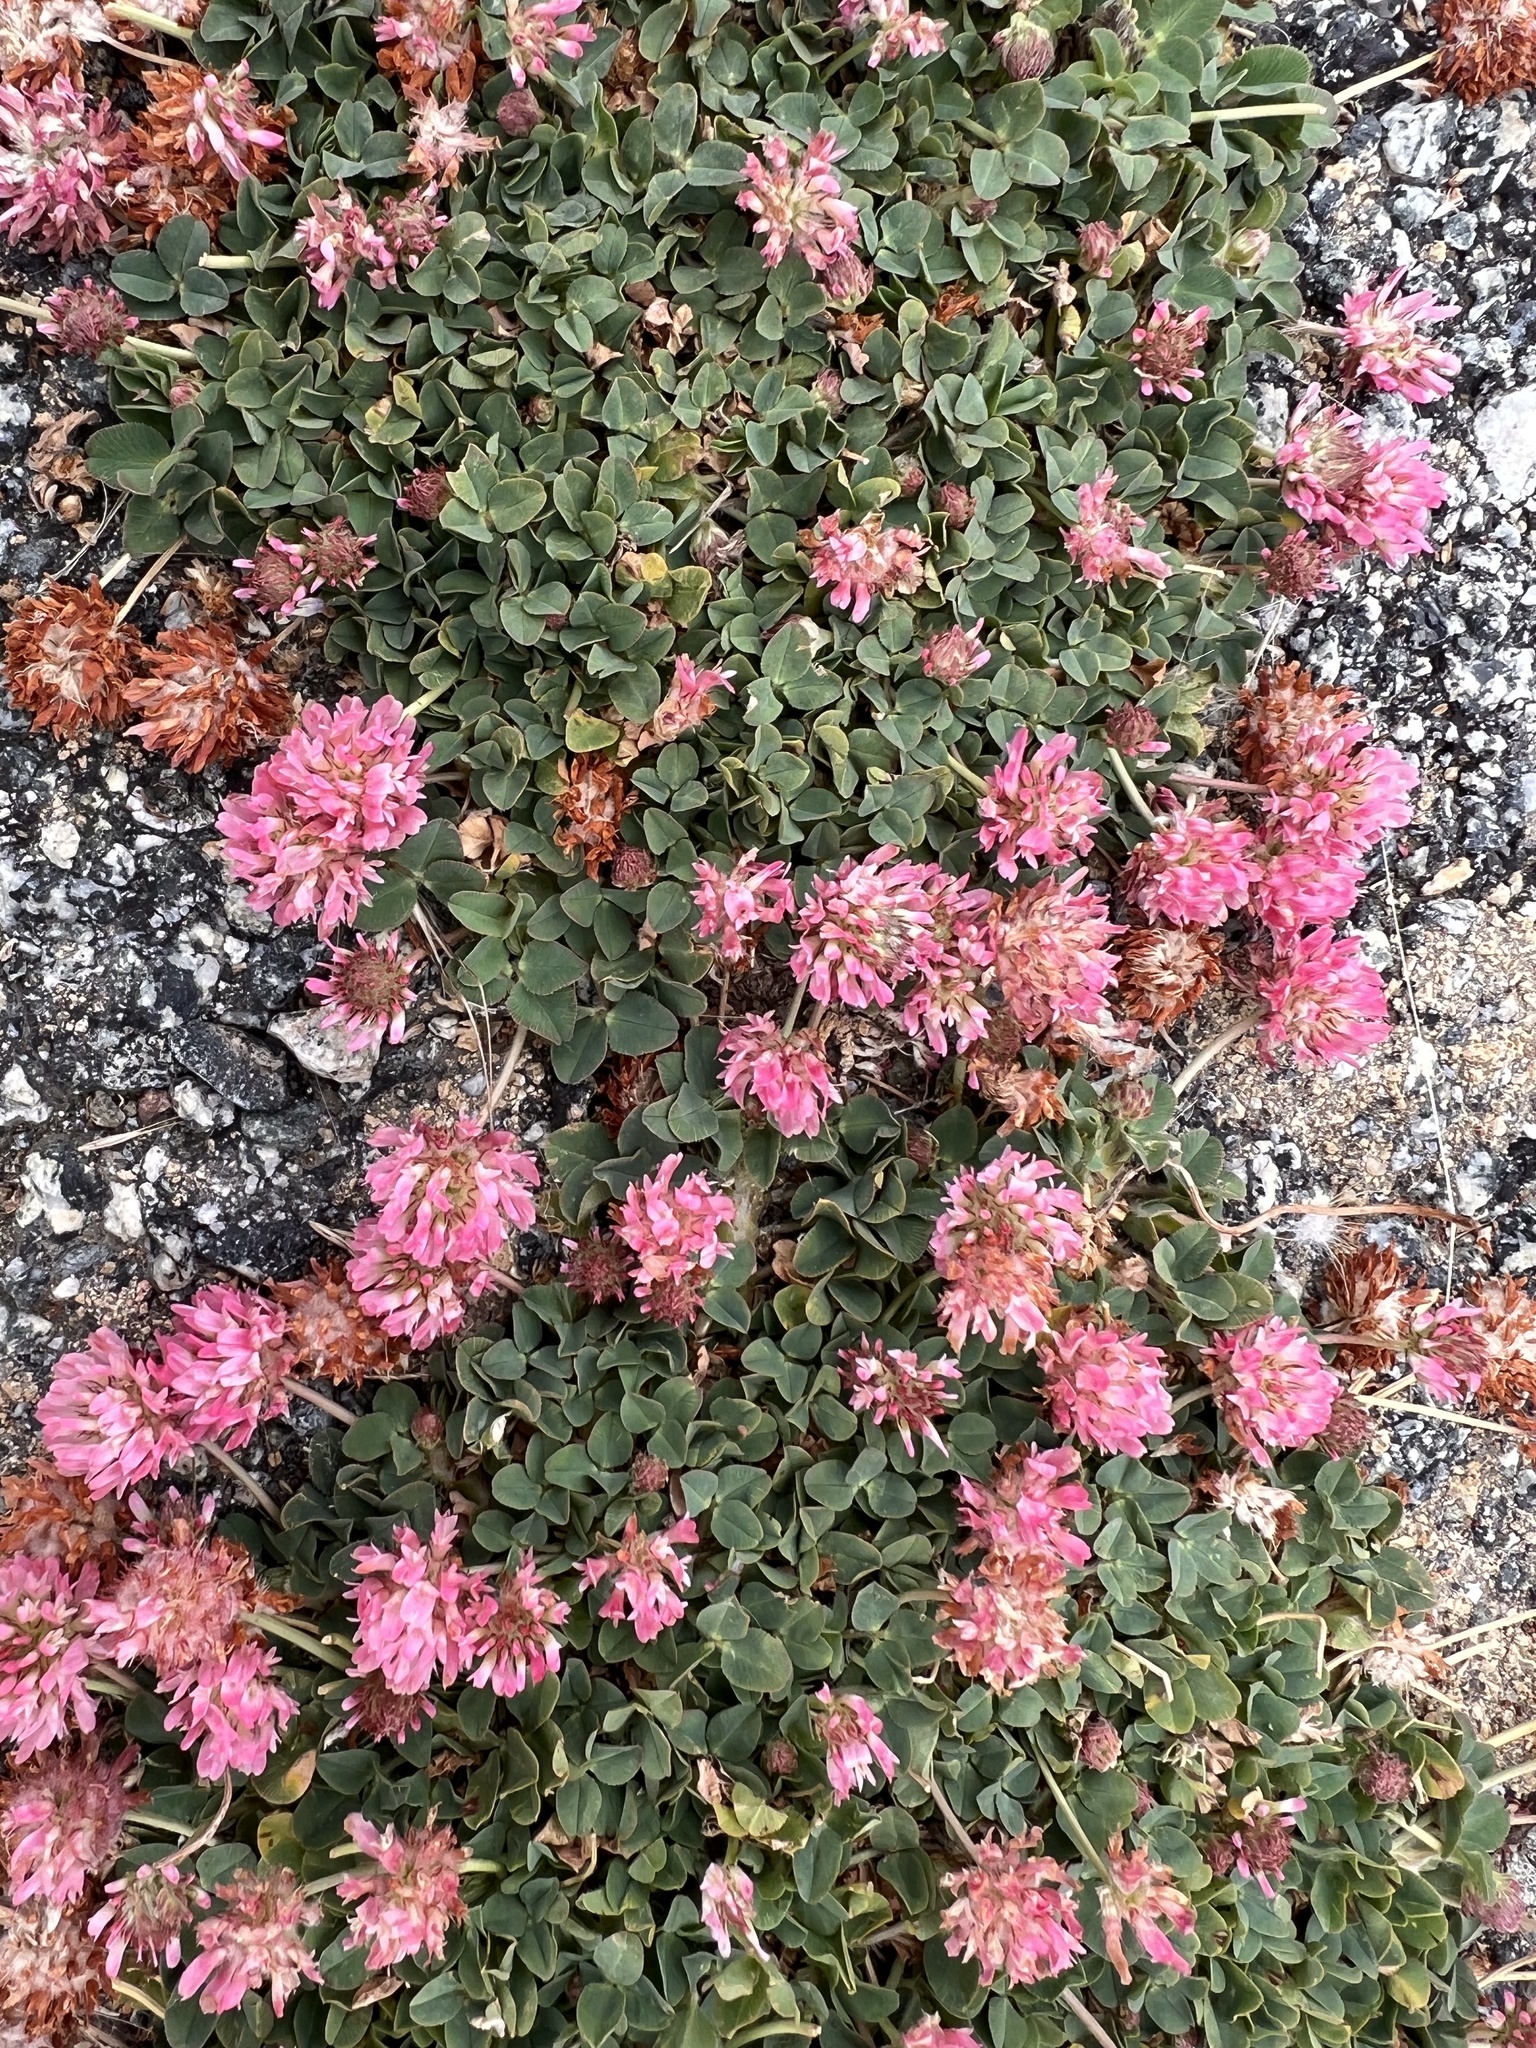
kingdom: Plantae
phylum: Tracheophyta
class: Magnoliopsida
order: Fabales
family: Fabaceae
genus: Trifolium
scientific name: Trifolium fragiferum
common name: Strawberry clover
